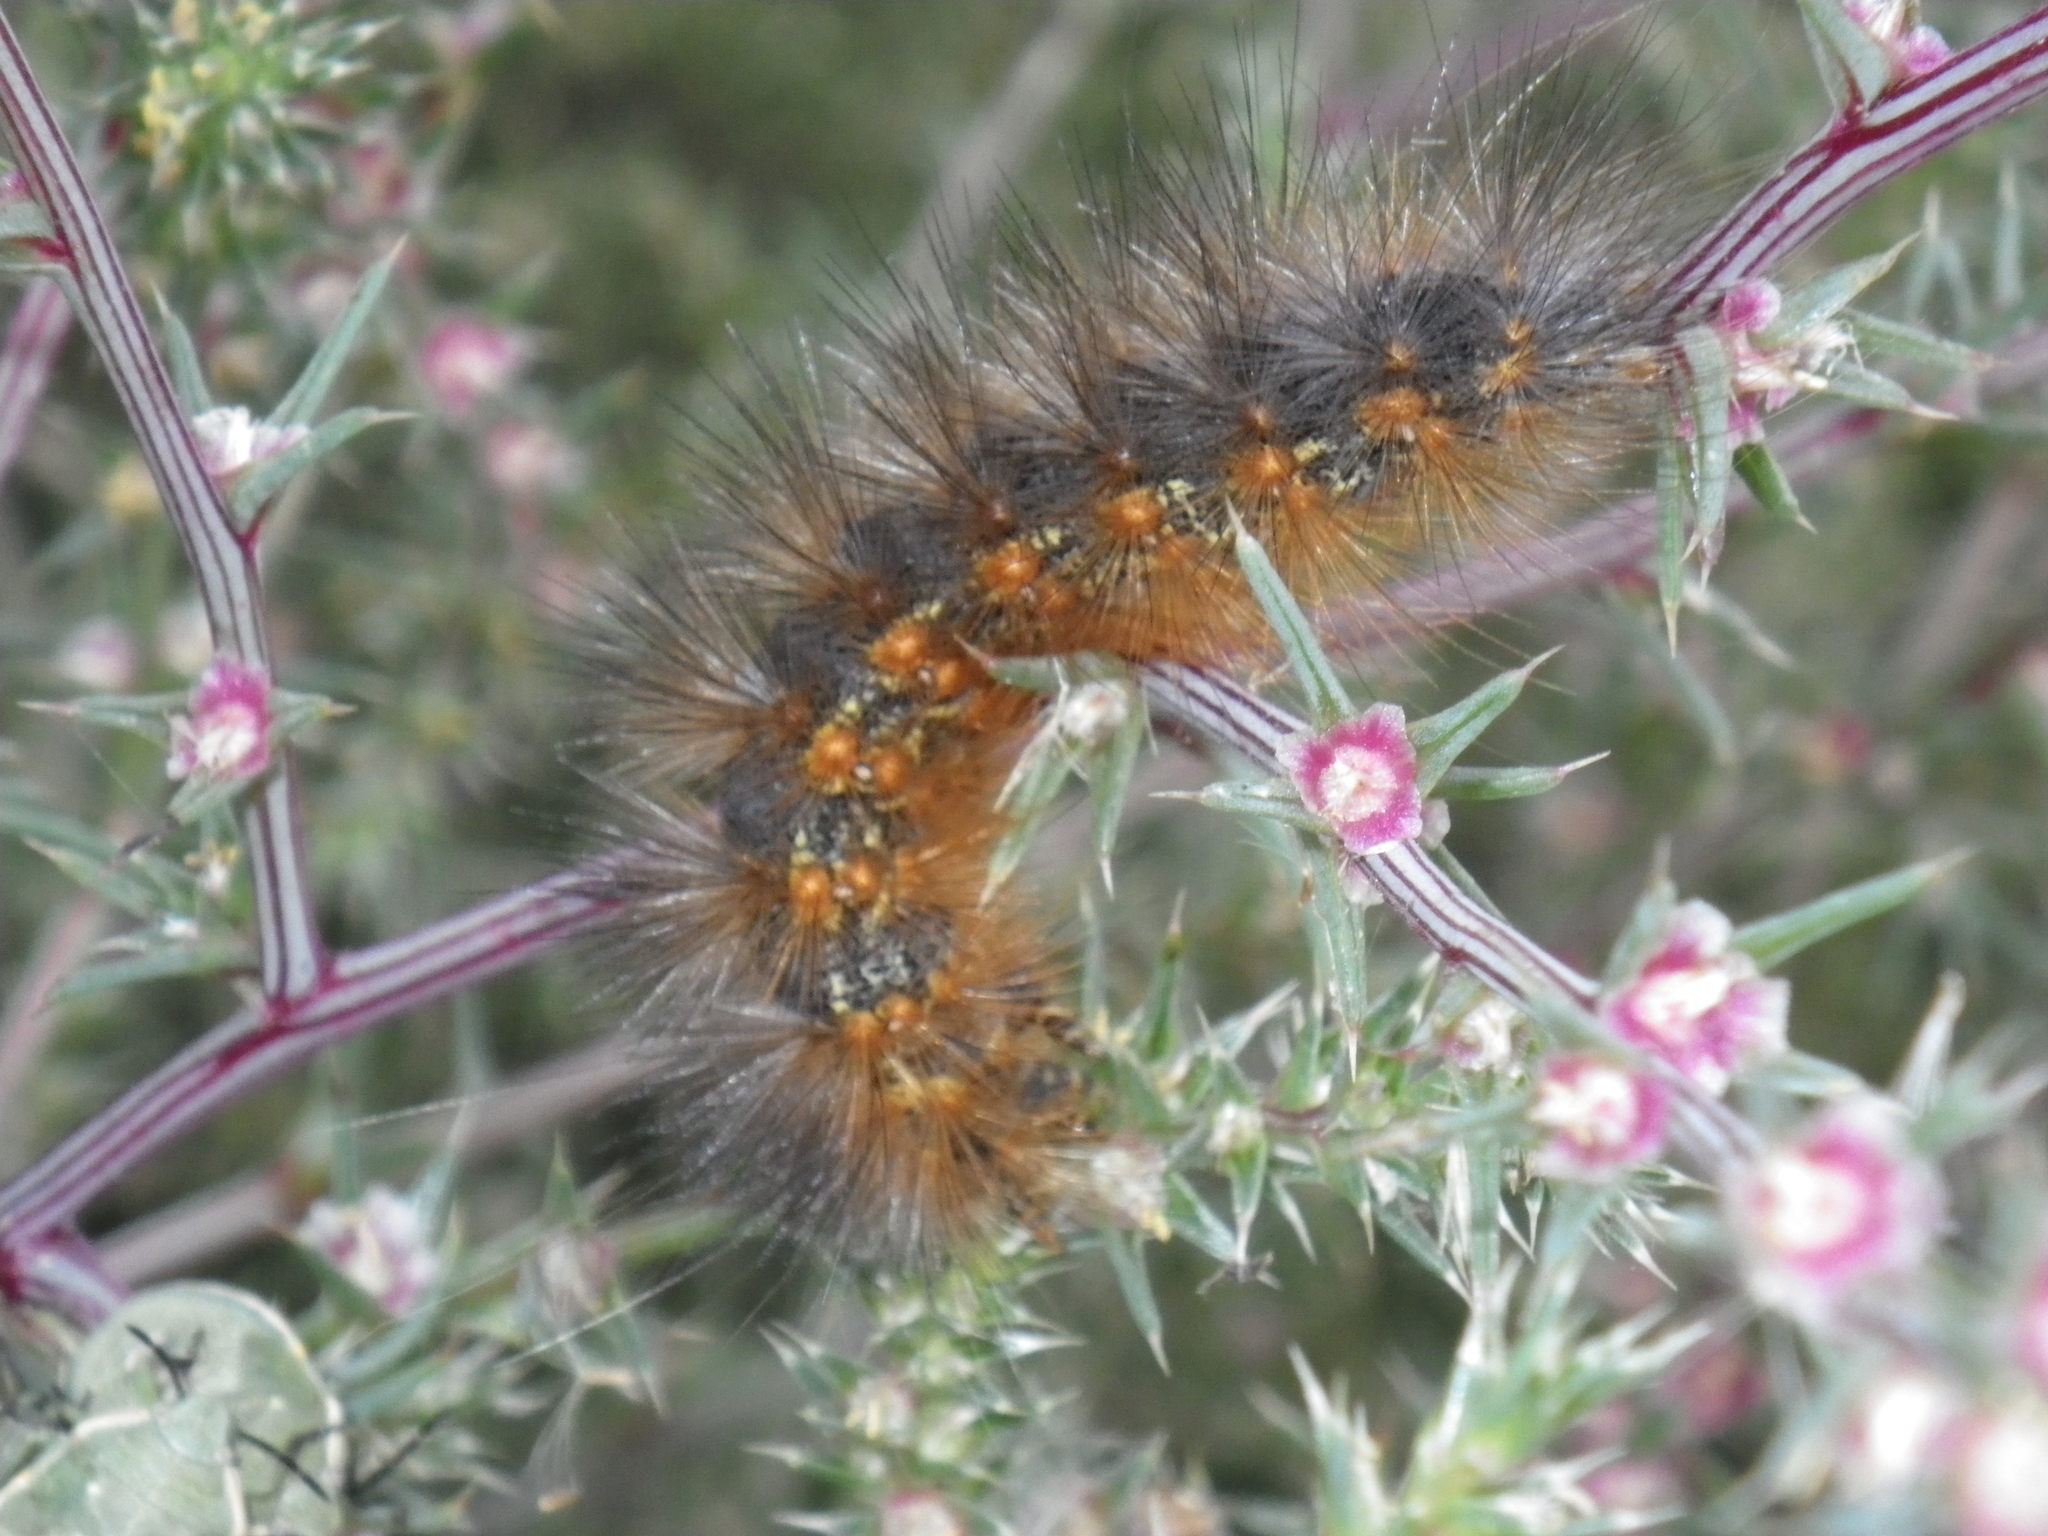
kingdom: Animalia
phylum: Arthropoda
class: Insecta
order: Lepidoptera
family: Erebidae
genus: Estigmene
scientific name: Estigmene acrea
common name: Salt marsh moth
